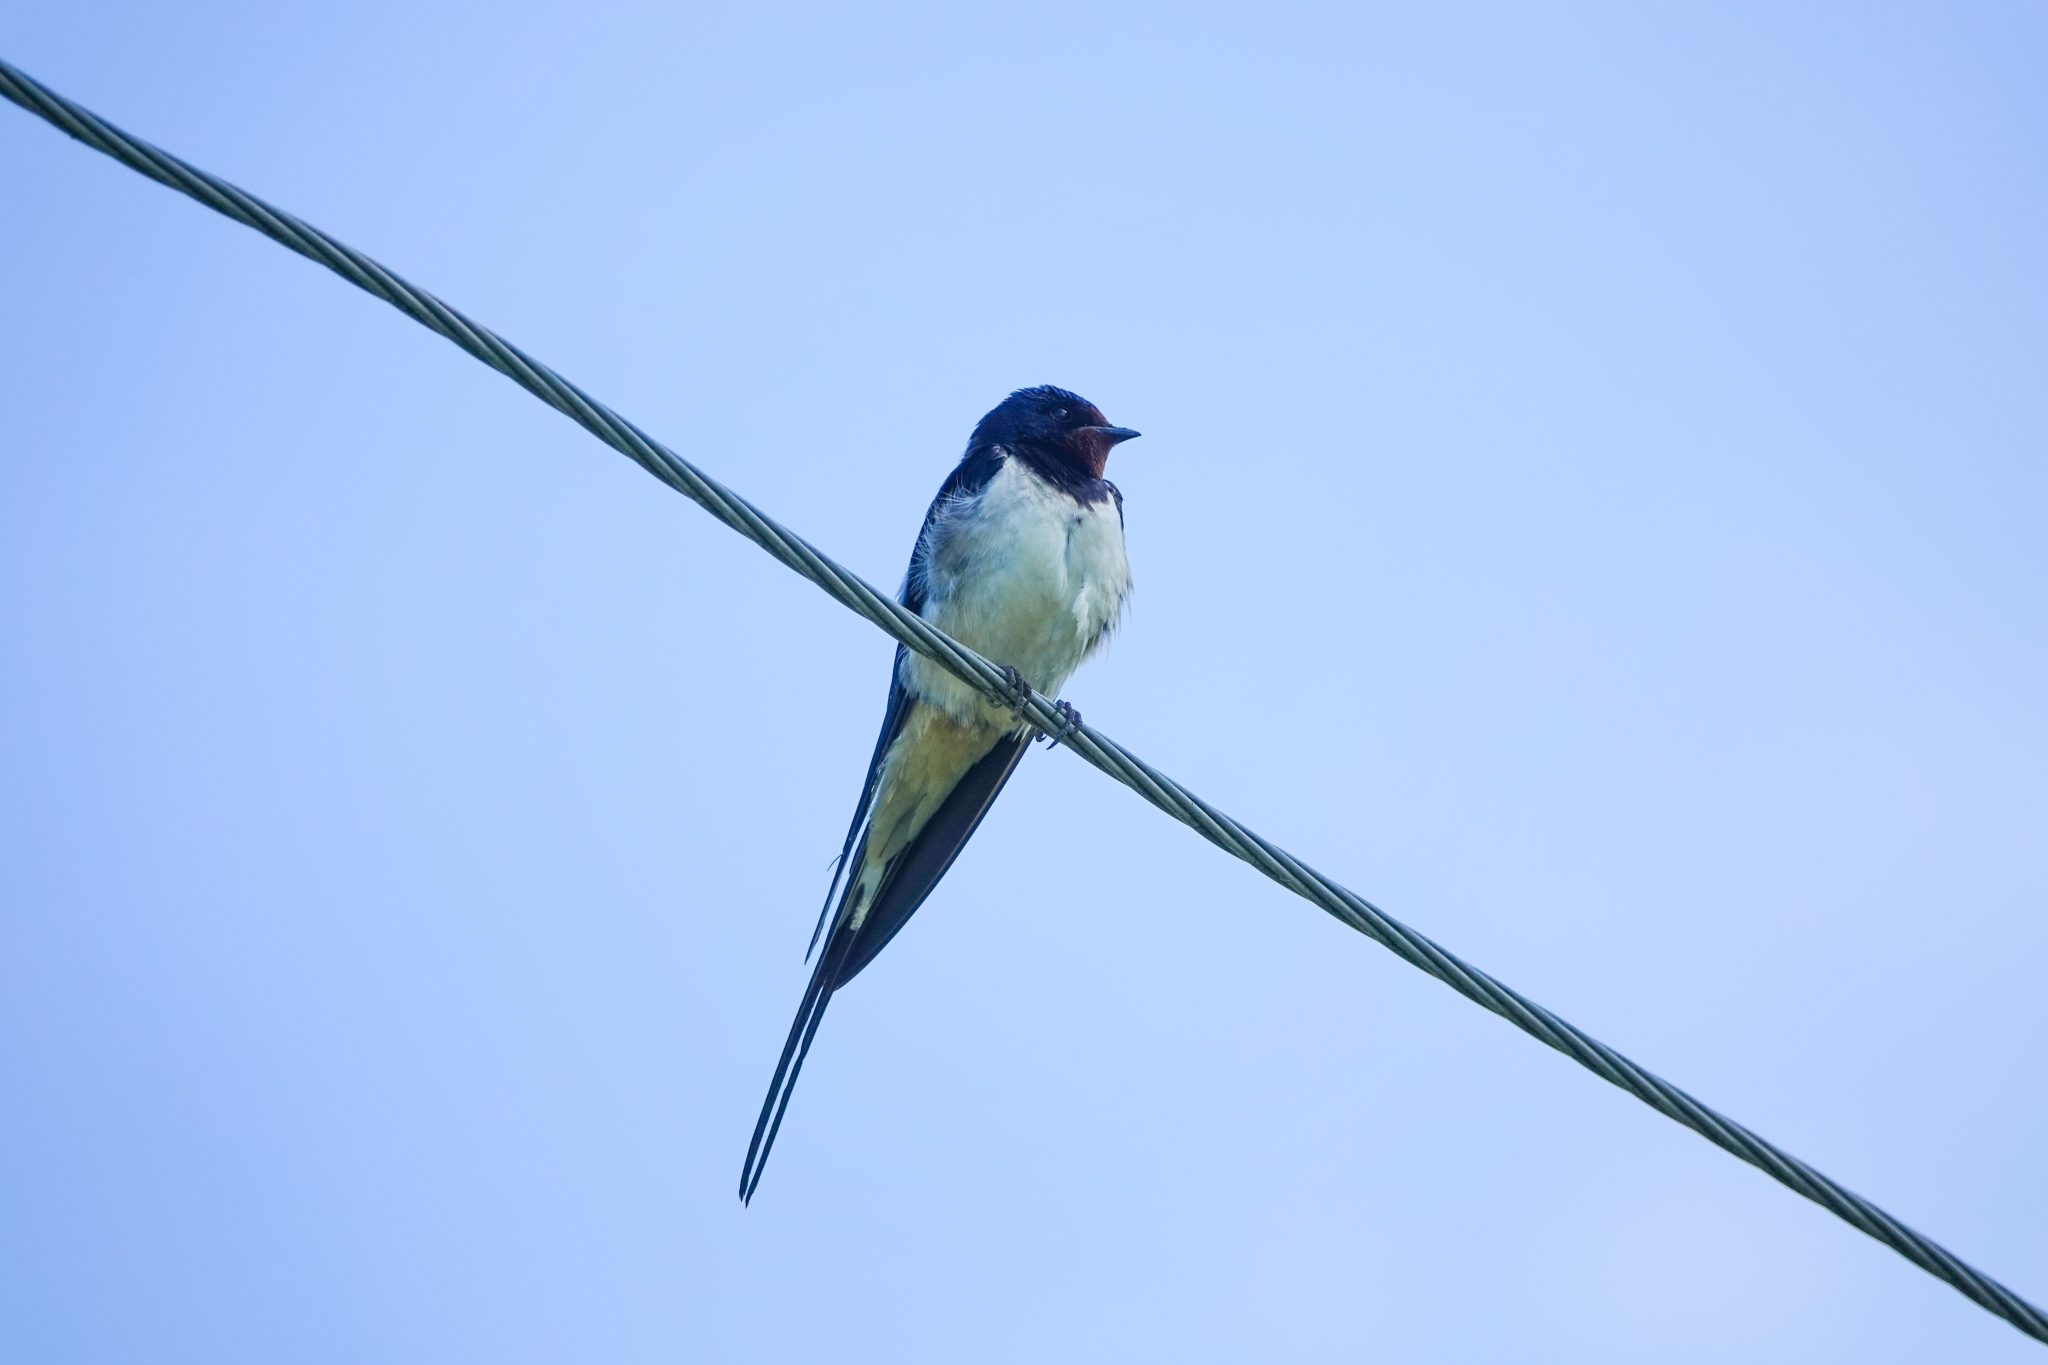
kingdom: Animalia
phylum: Chordata
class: Aves
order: Passeriformes
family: Hirundinidae
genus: Hirundo
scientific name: Hirundo rustica
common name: Barn swallow
